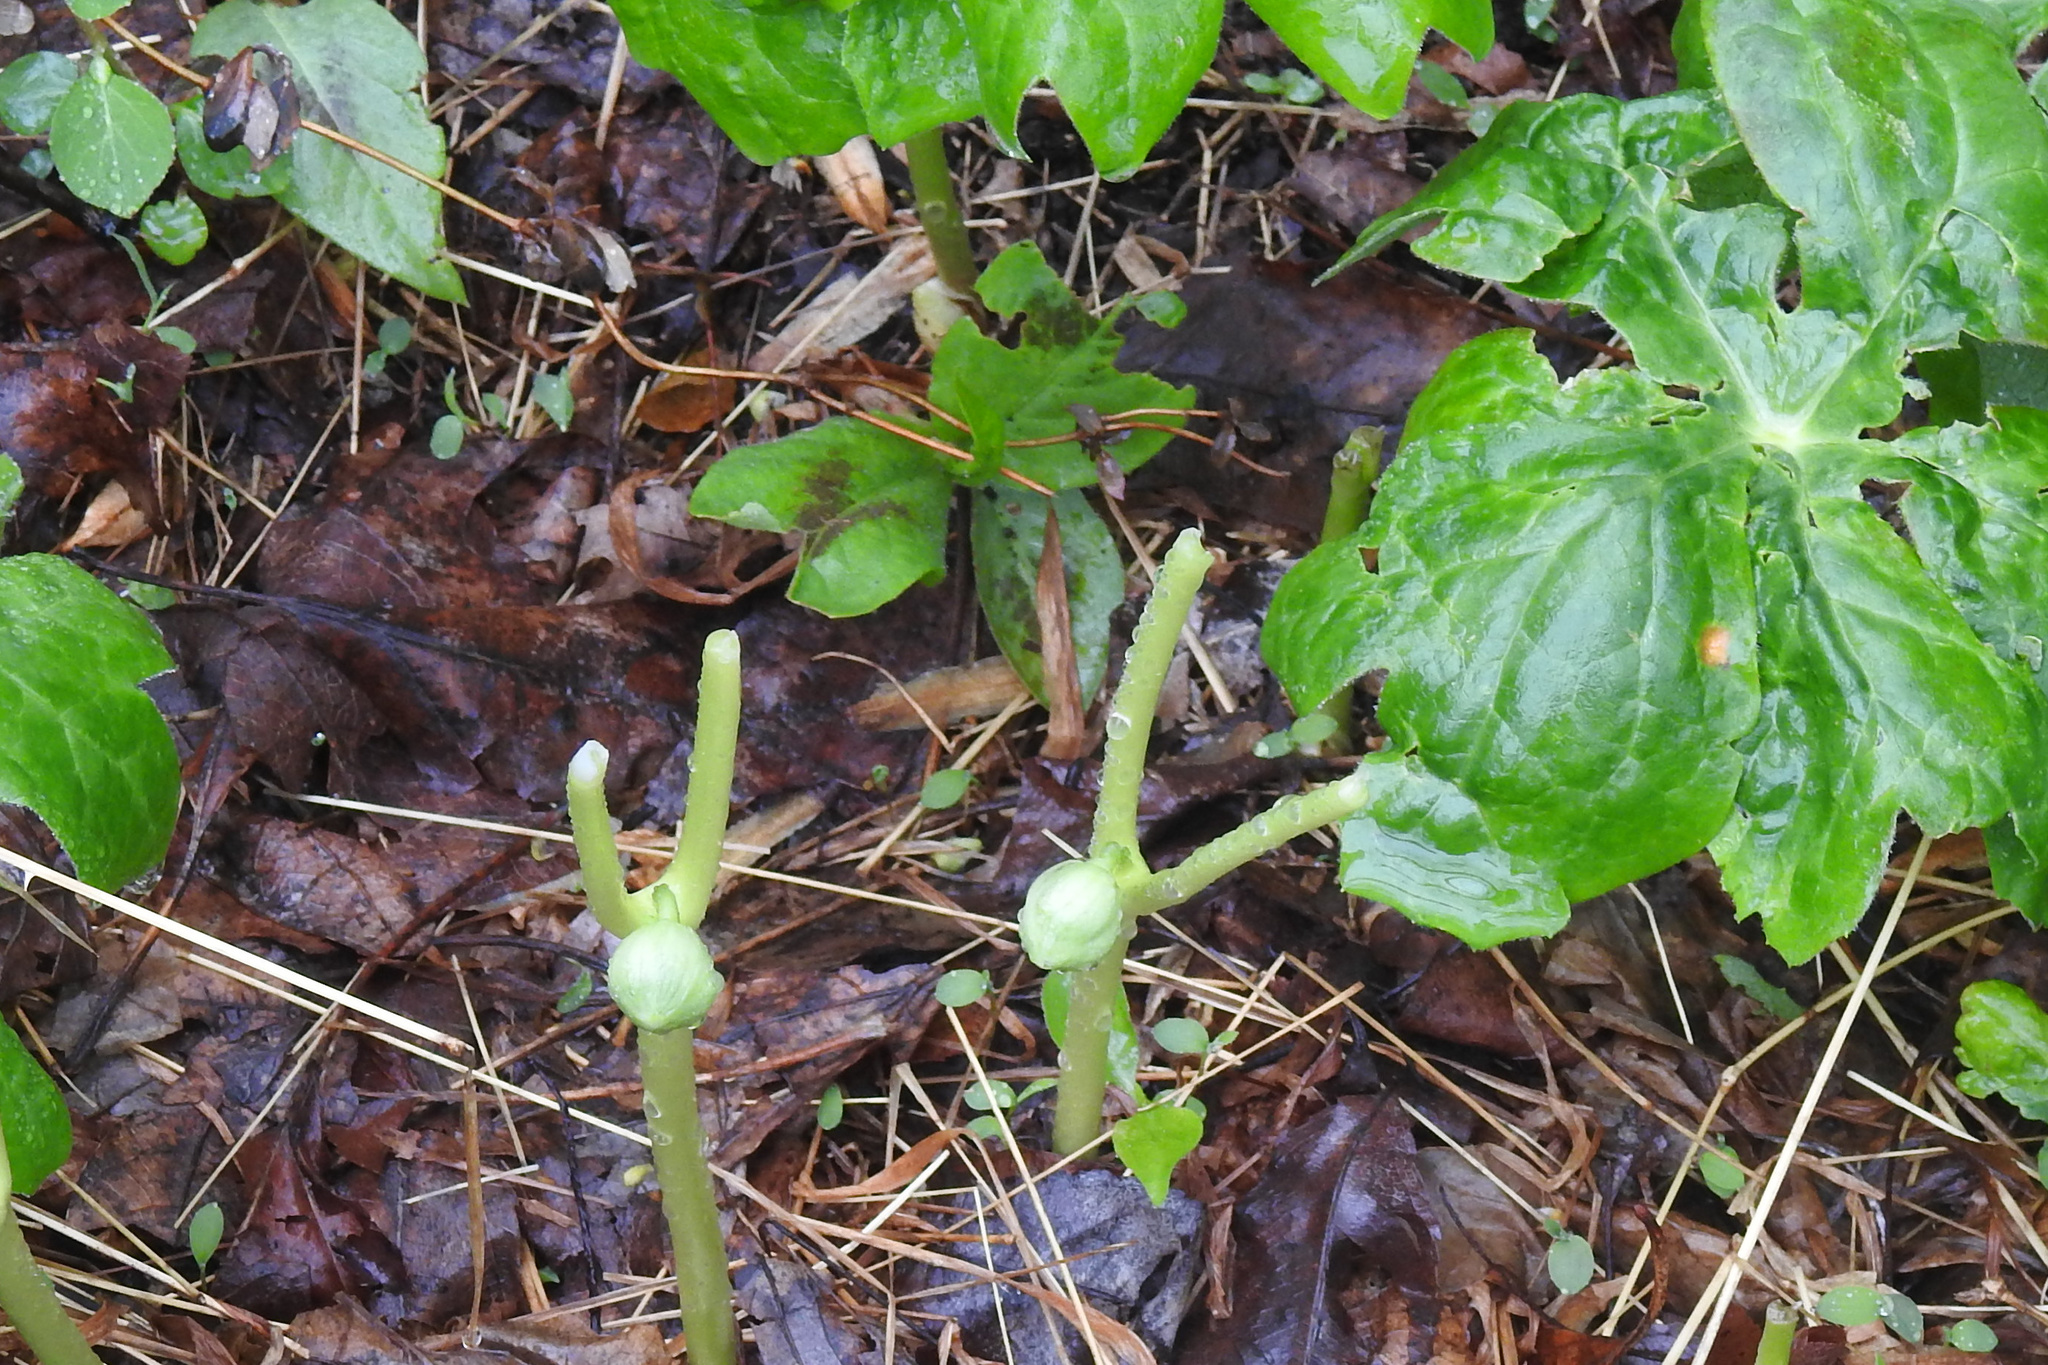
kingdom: Plantae
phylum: Tracheophyta
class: Magnoliopsida
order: Ranunculales
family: Berberidaceae
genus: Podophyllum
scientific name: Podophyllum peltatum
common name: Wild mandrake
